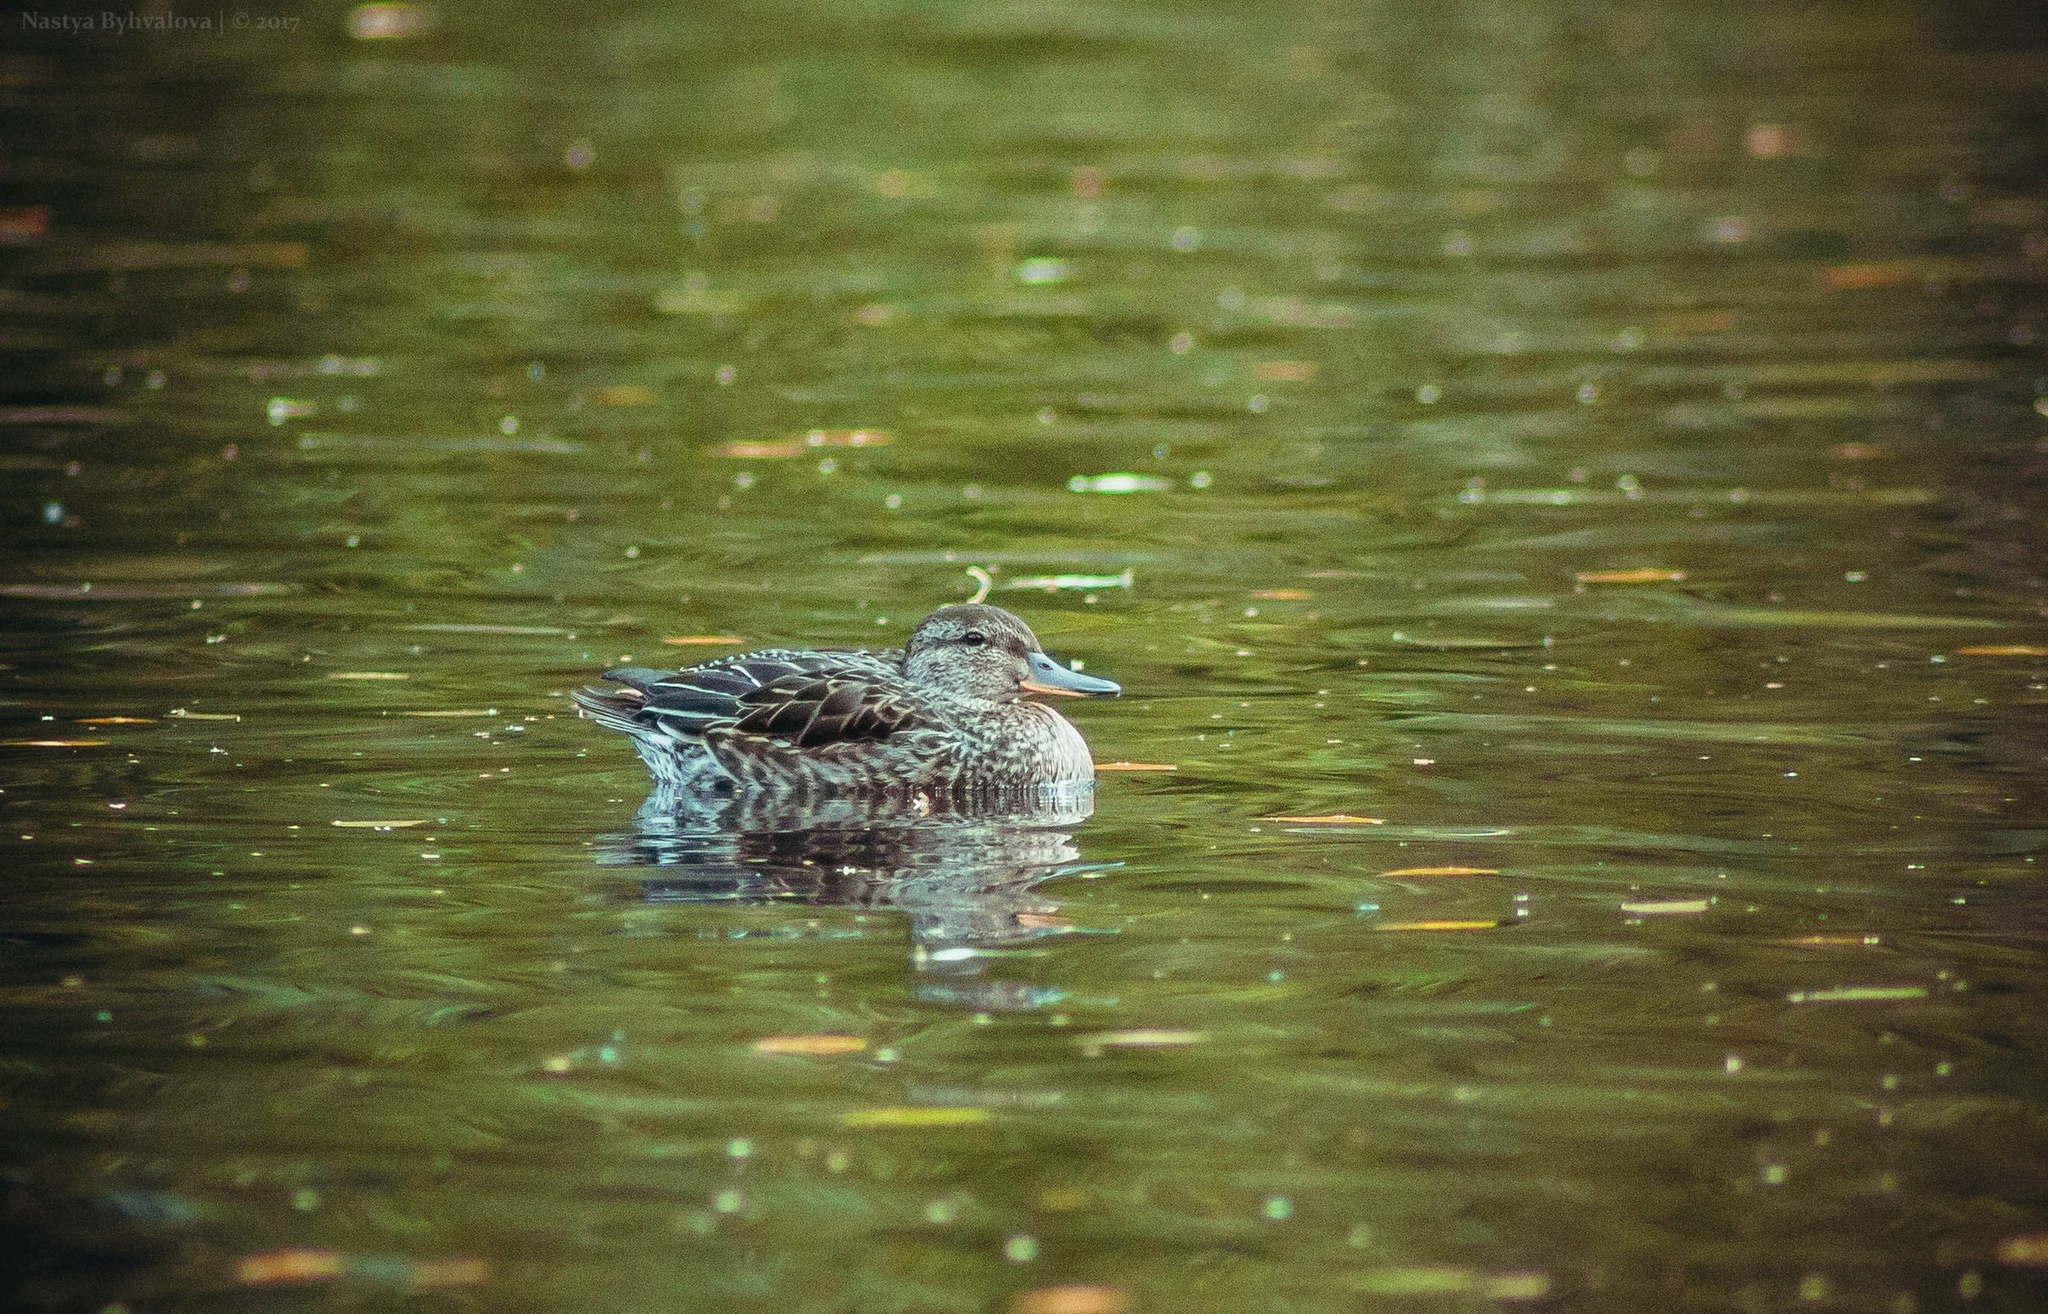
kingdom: Animalia
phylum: Chordata
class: Aves
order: Anseriformes
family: Anatidae
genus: Anas
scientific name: Anas crecca
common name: Eurasian teal
